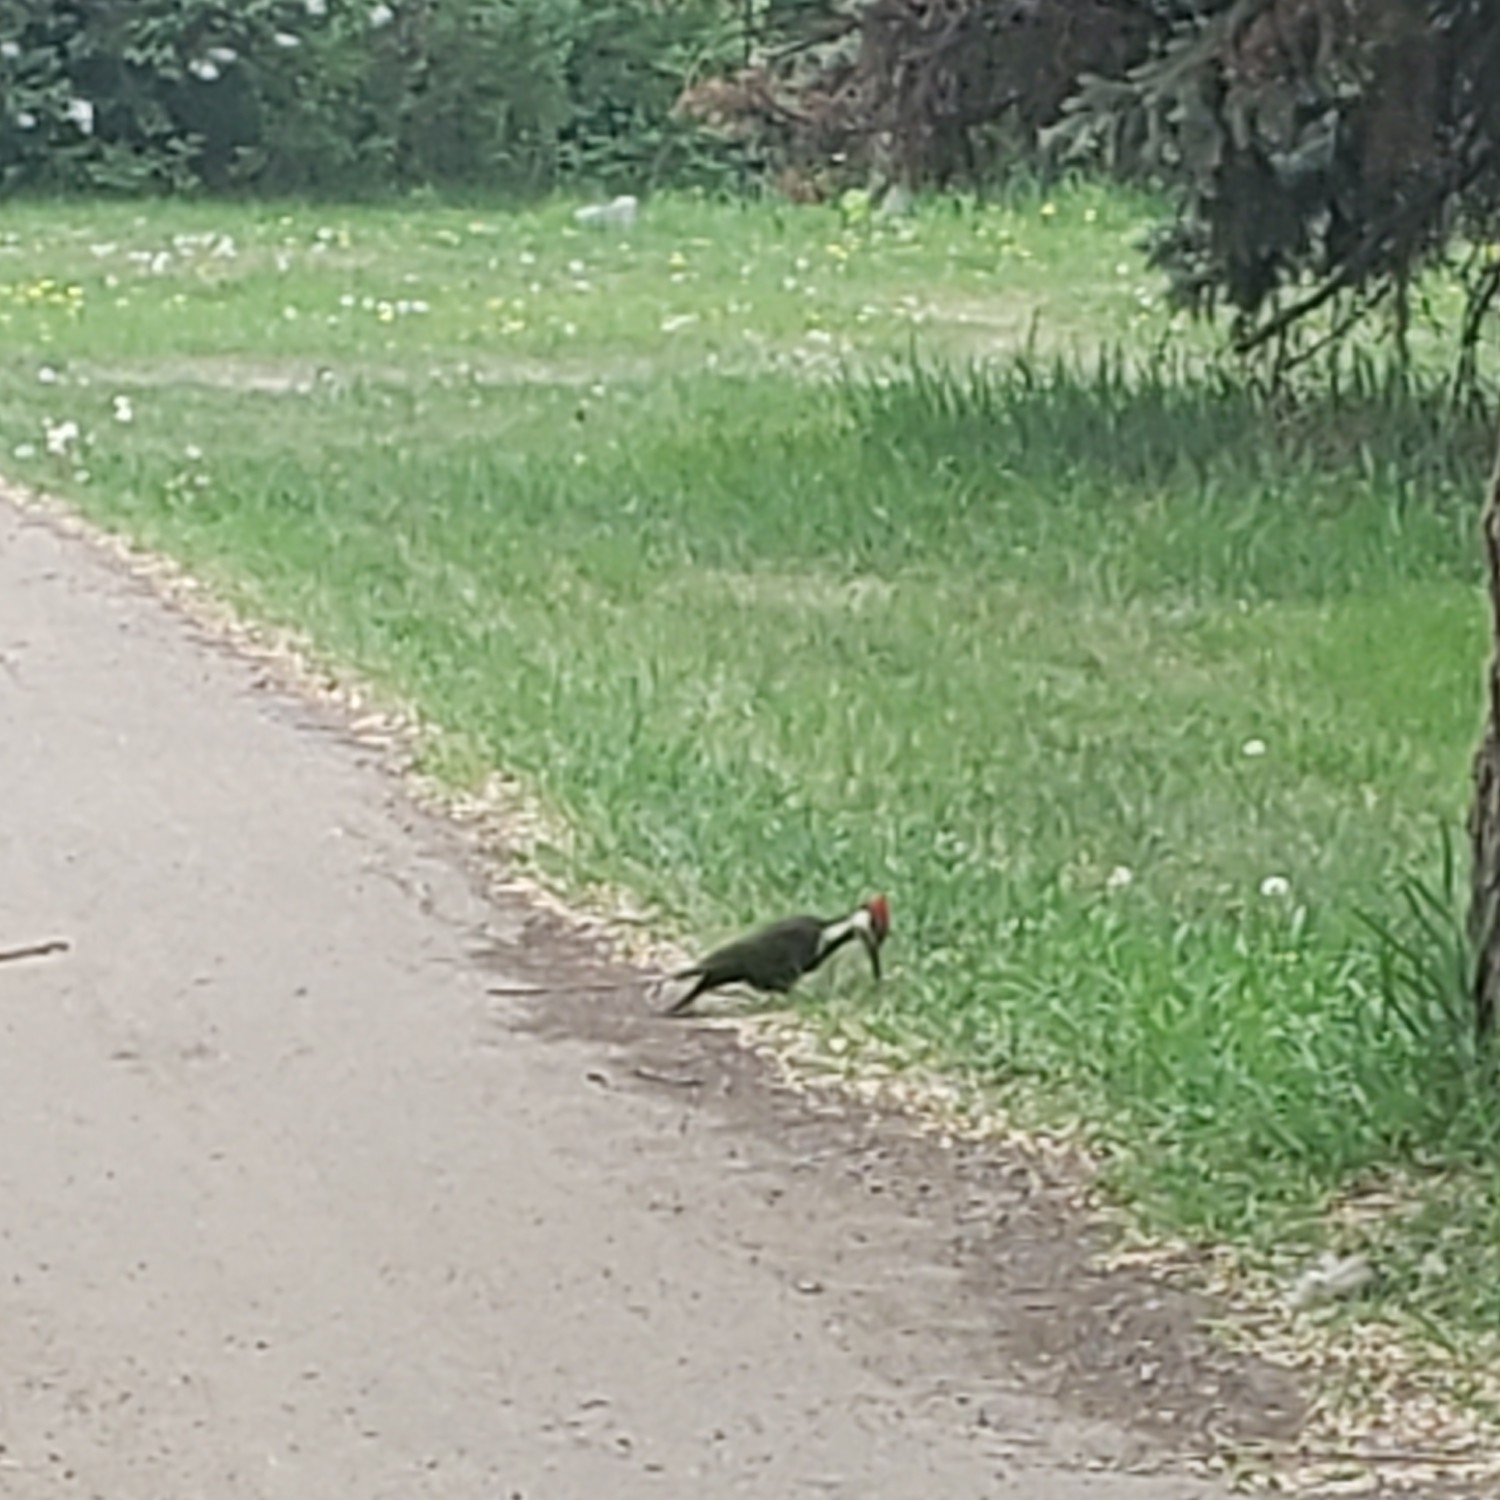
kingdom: Animalia
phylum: Chordata
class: Aves
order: Piciformes
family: Picidae
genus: Dryocopus
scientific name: Dryocopus pileatus
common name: Pileated woodpecker
